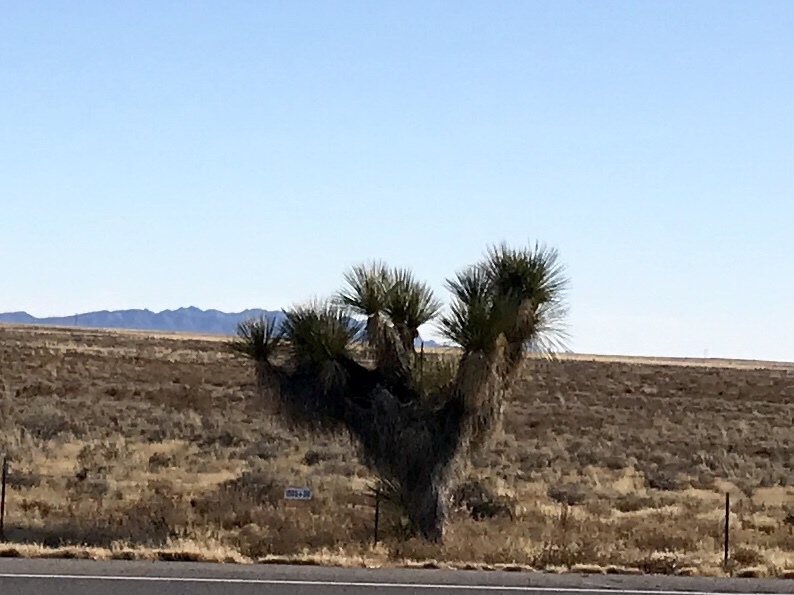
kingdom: Plantae
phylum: Tracheophyta
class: Liliopsida
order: Asparagales
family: Asparagaceae
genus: Yucca
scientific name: Yucca elata
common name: Palmella
